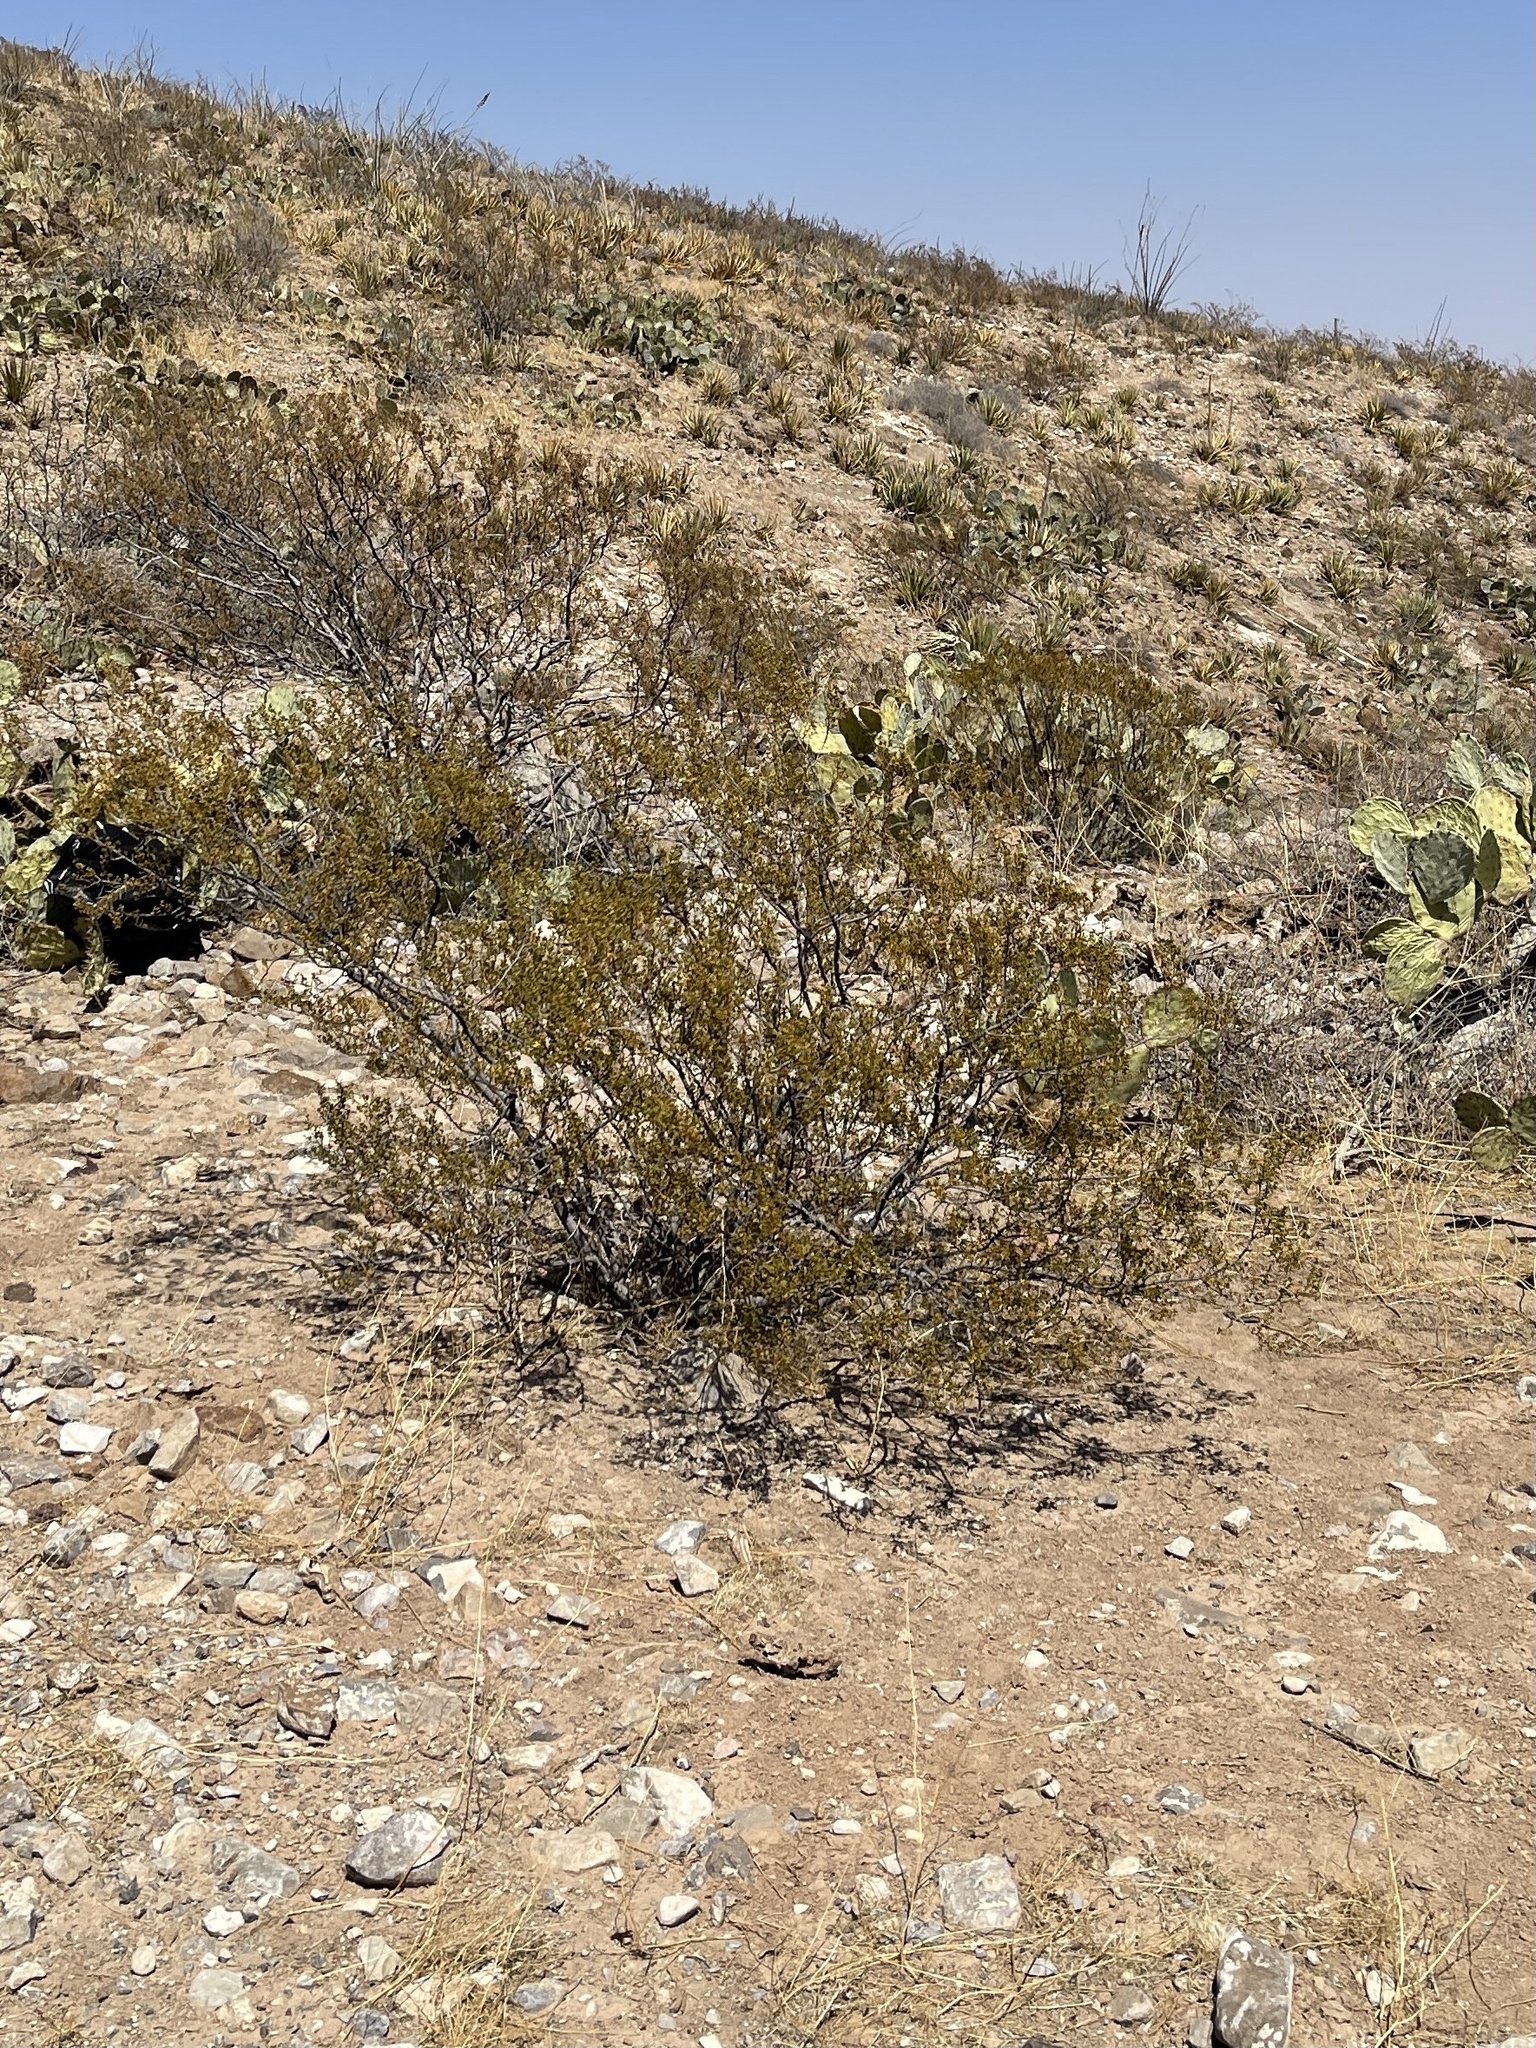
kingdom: Plantae
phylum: Tracheophyta
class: Magnoliopsida
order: Zygophyllales
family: Zygophyllaceae
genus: Larrea
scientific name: Larrea tridentata
